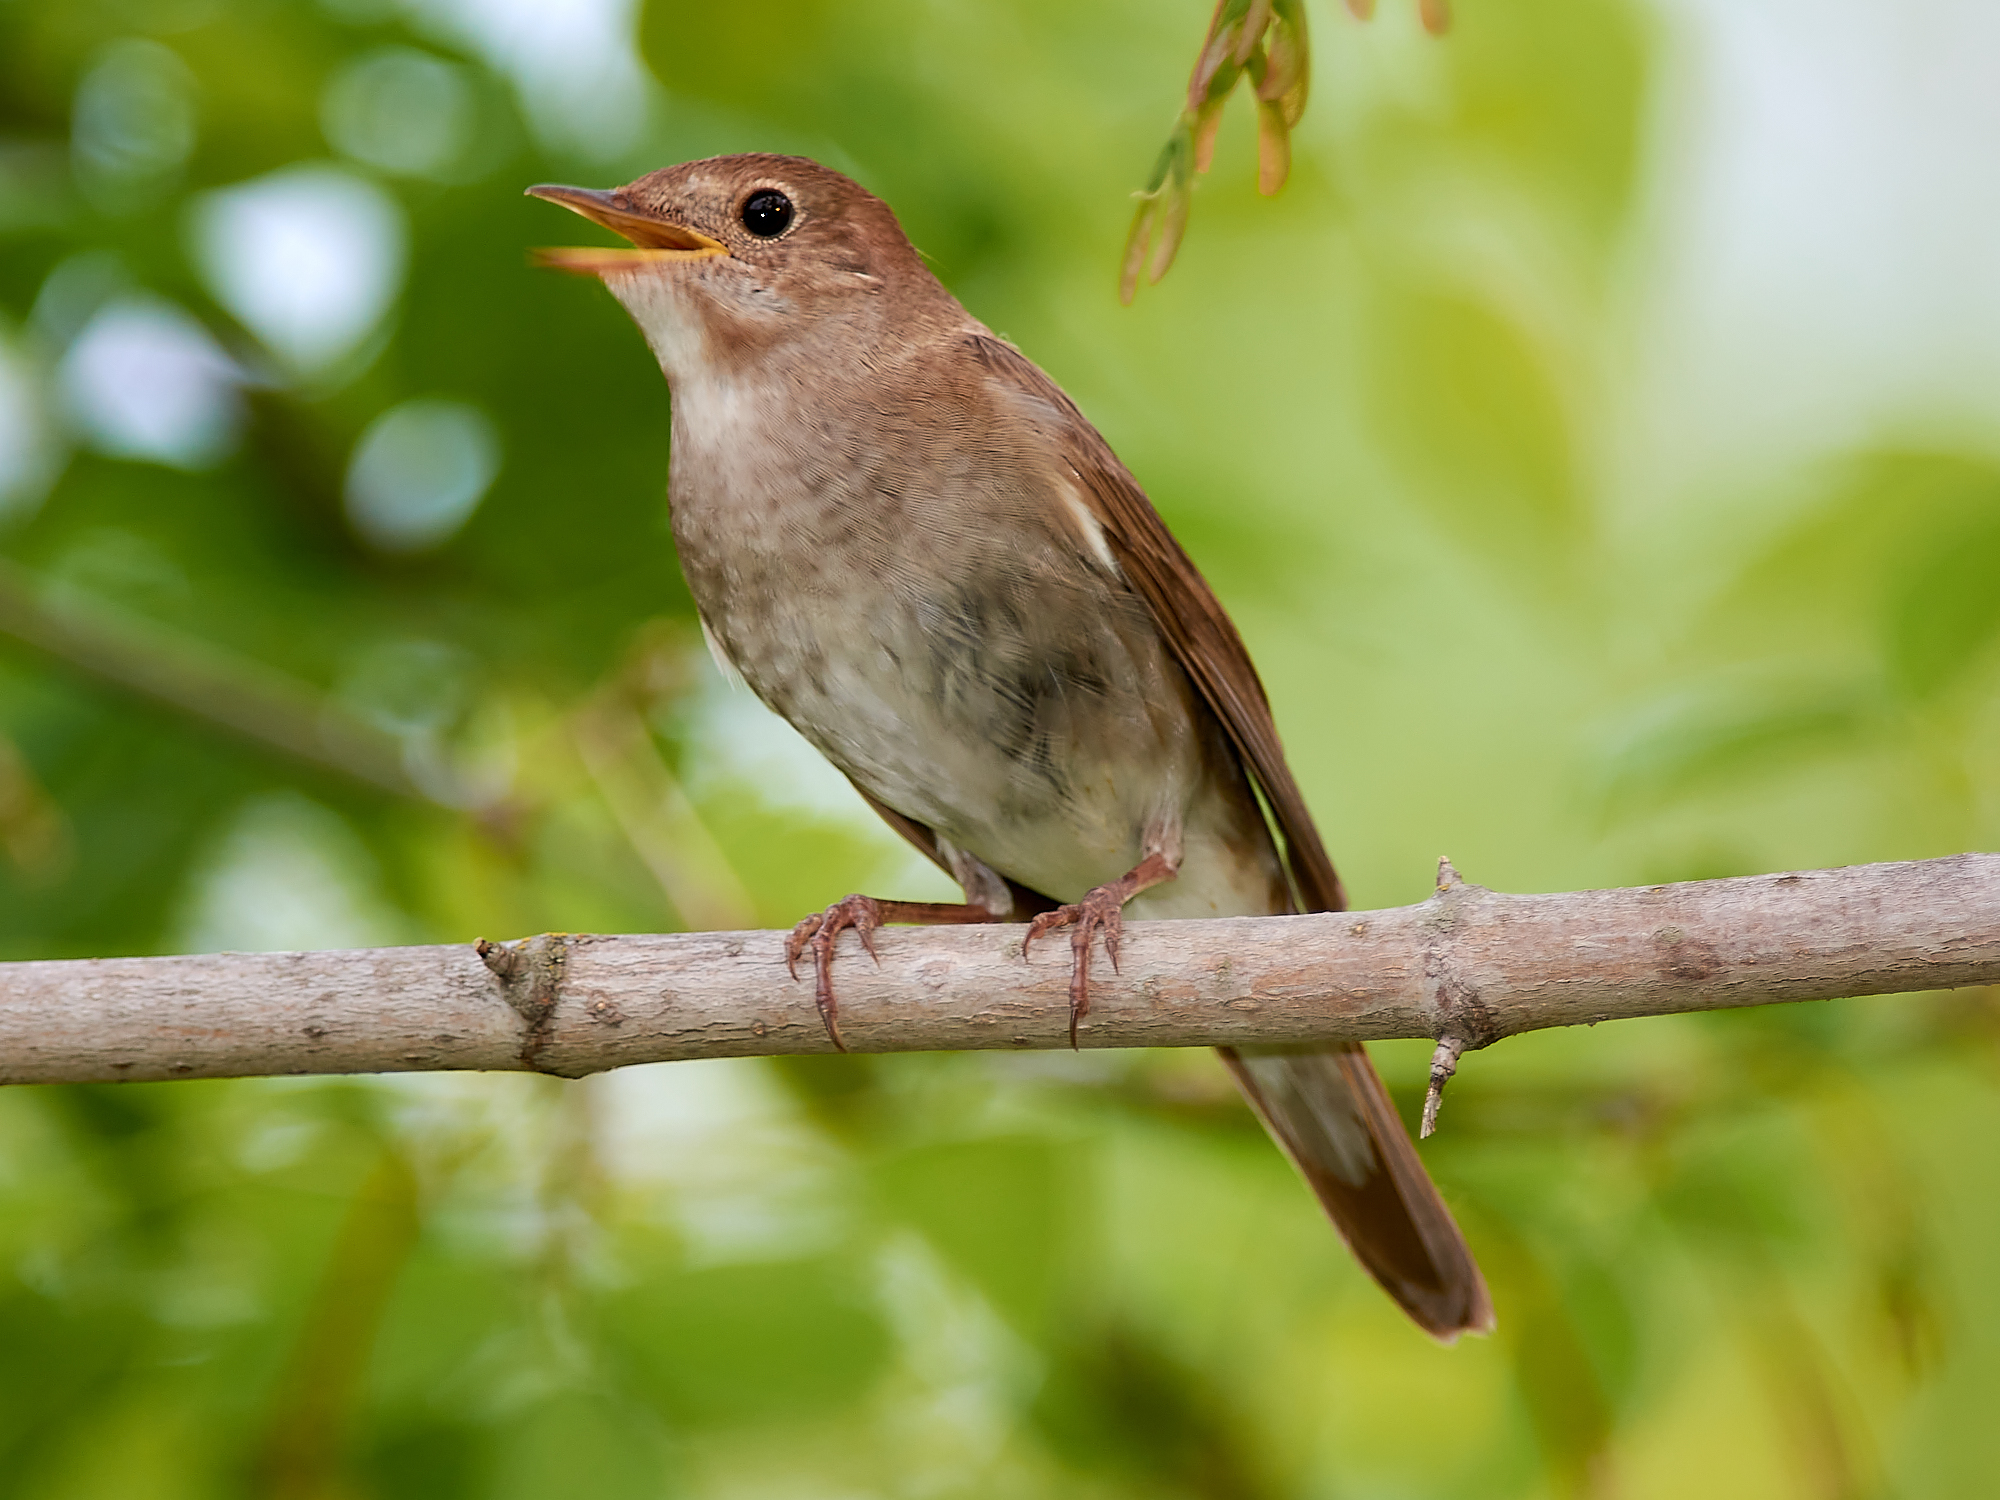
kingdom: Animalia
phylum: Chordata
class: Aves
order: Passeriformes
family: Muscicapidae
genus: Luscinia
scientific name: Luscinia luscinia
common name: Thrush nightingale
